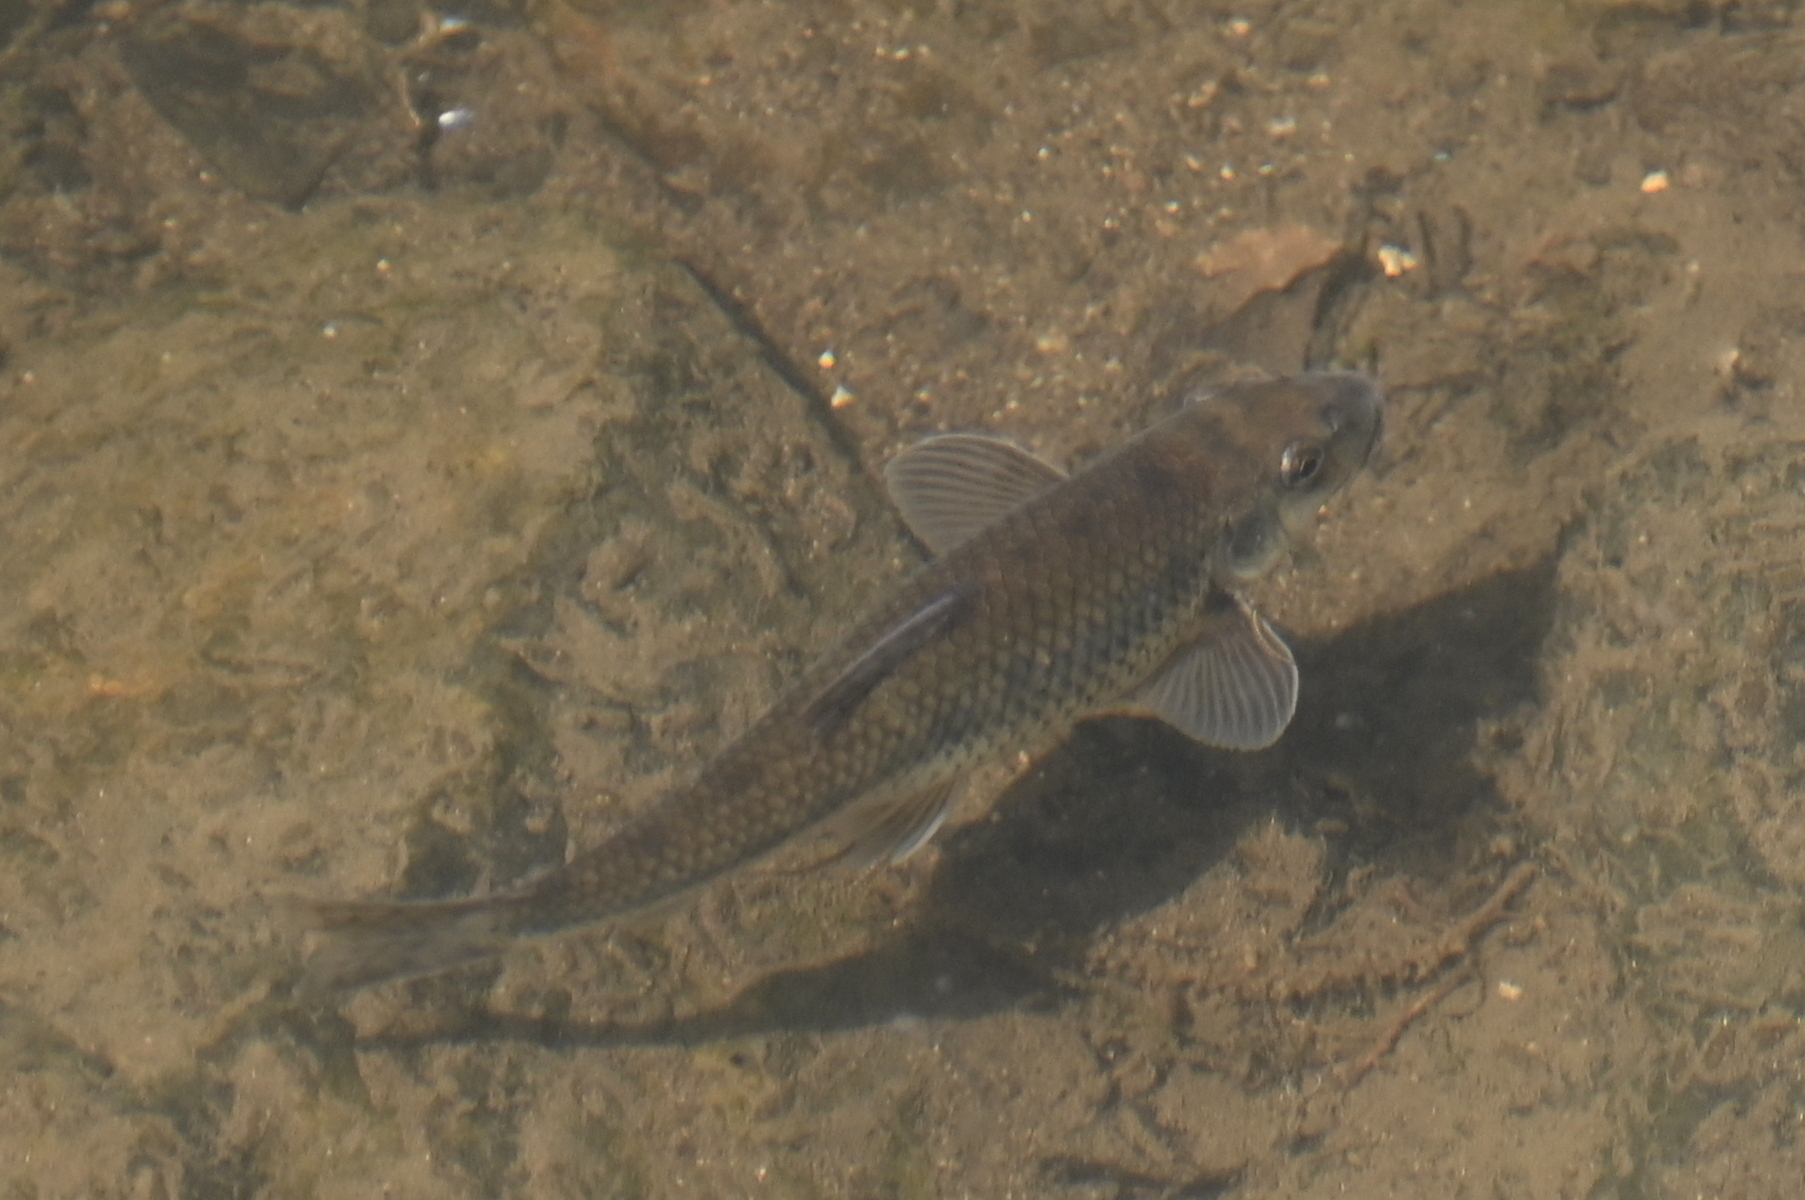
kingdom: Animalia
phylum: Chordata
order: Cypriniformes
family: Cyprinidae
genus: Gobio
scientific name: Gobio gobio
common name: Gudgeon
